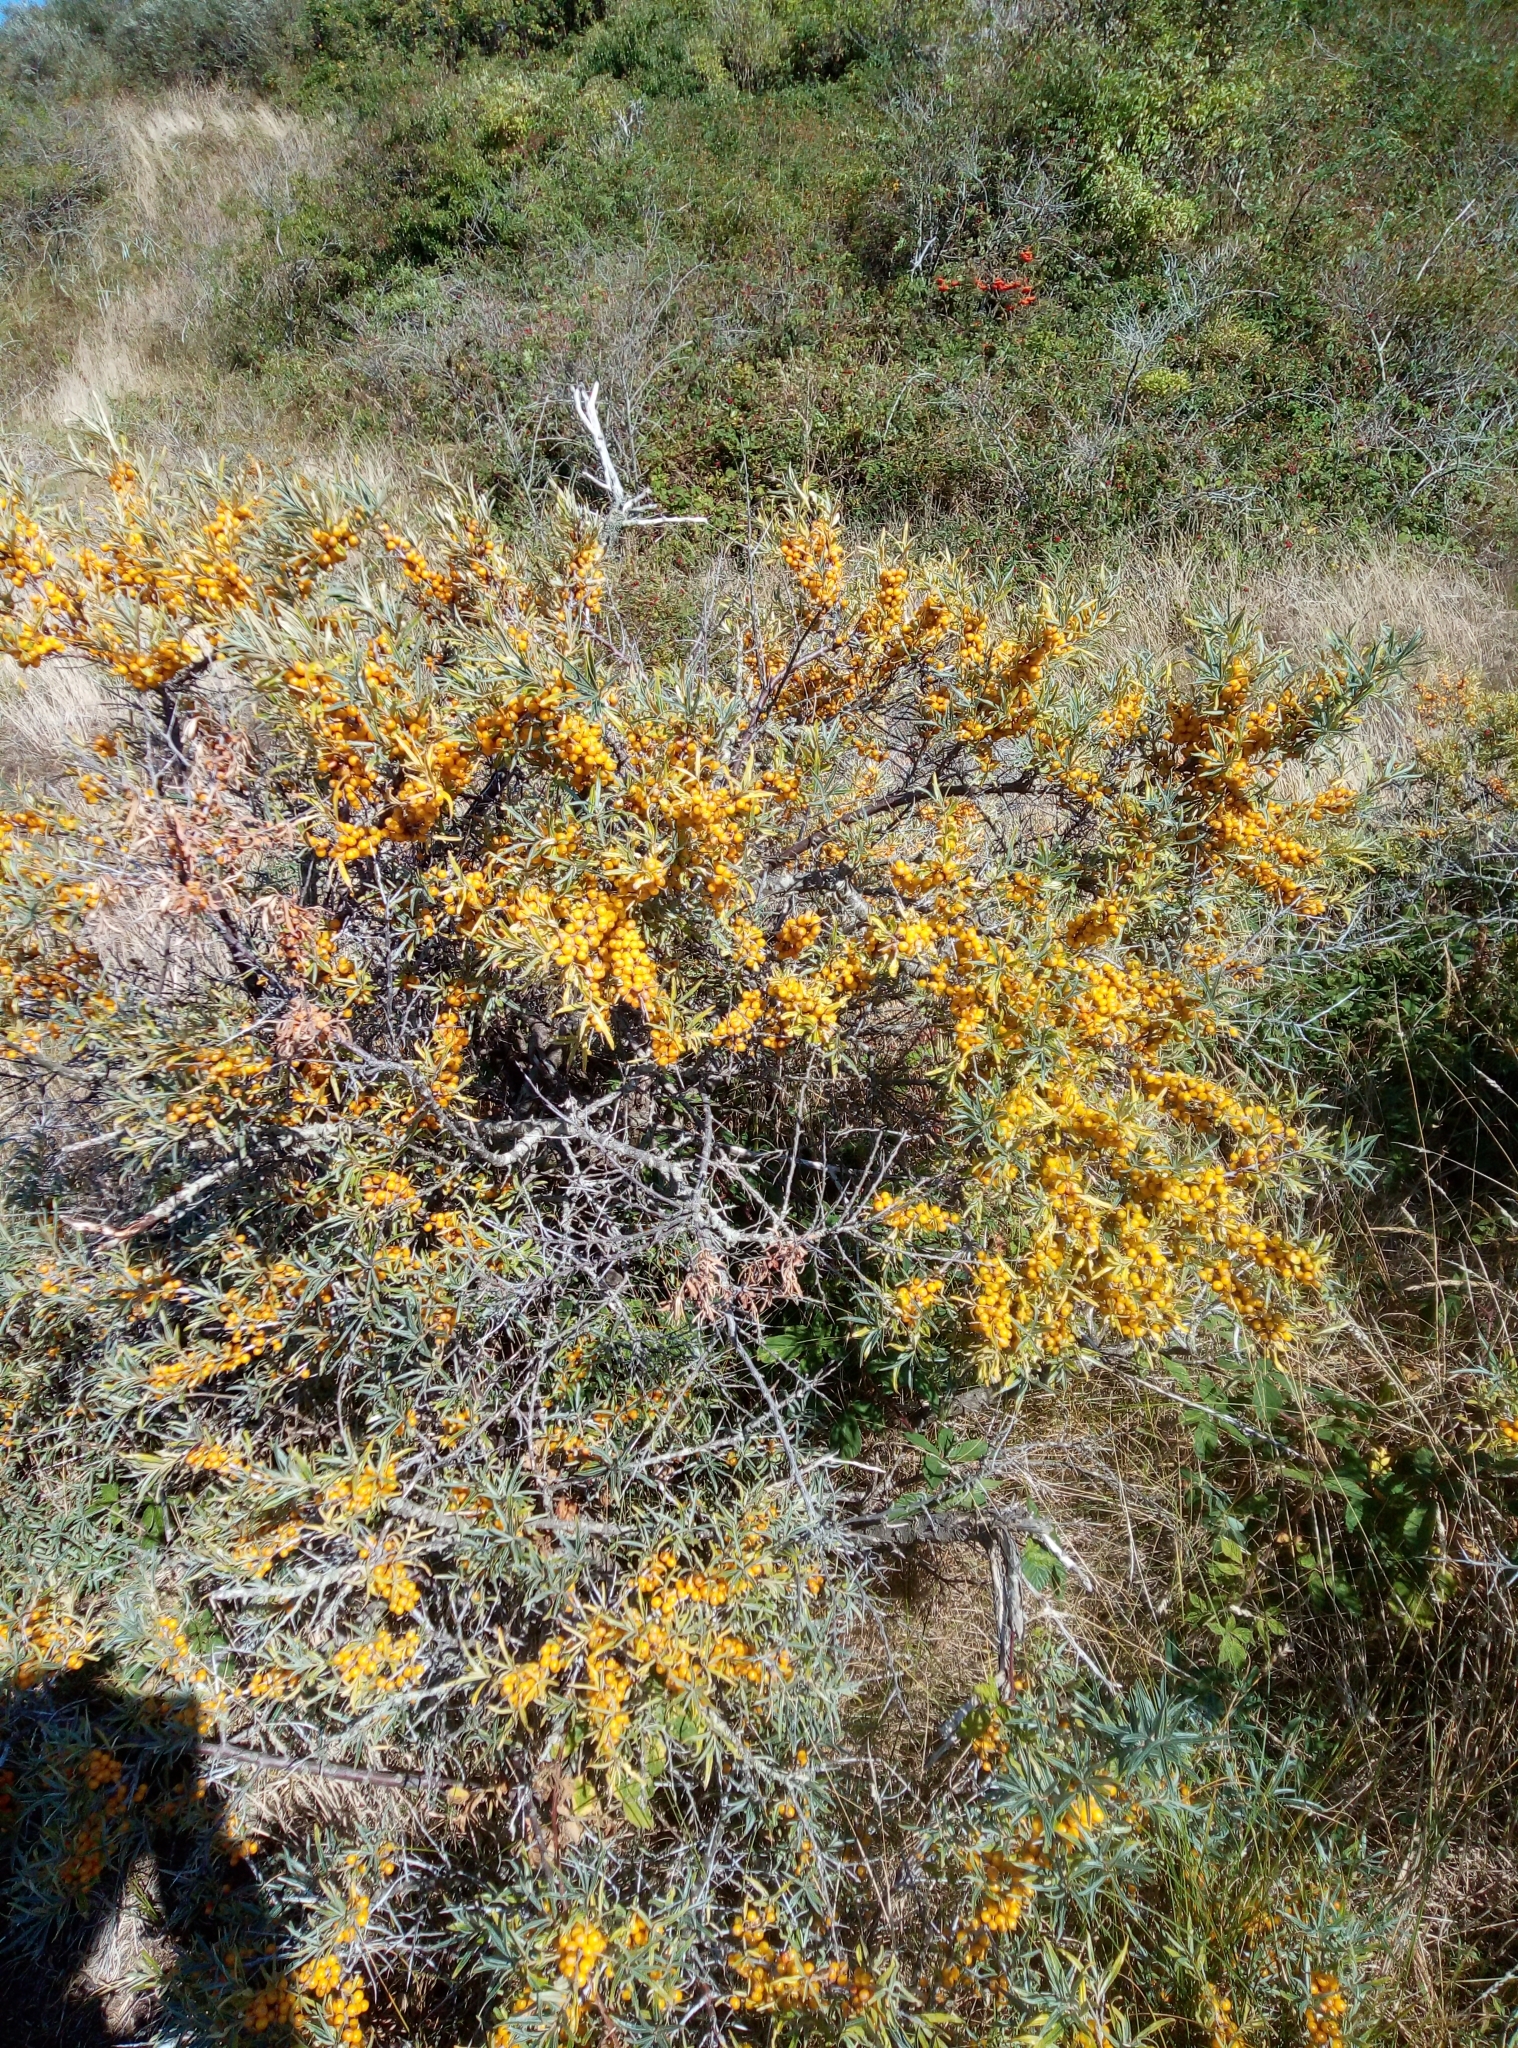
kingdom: Plantae
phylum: Tracheophyta
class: Magnoliopsida
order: Rosales
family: Elaeagnaceae
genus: Hippophae
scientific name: Hippophae rhamnoides
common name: Sea-buckthorn
